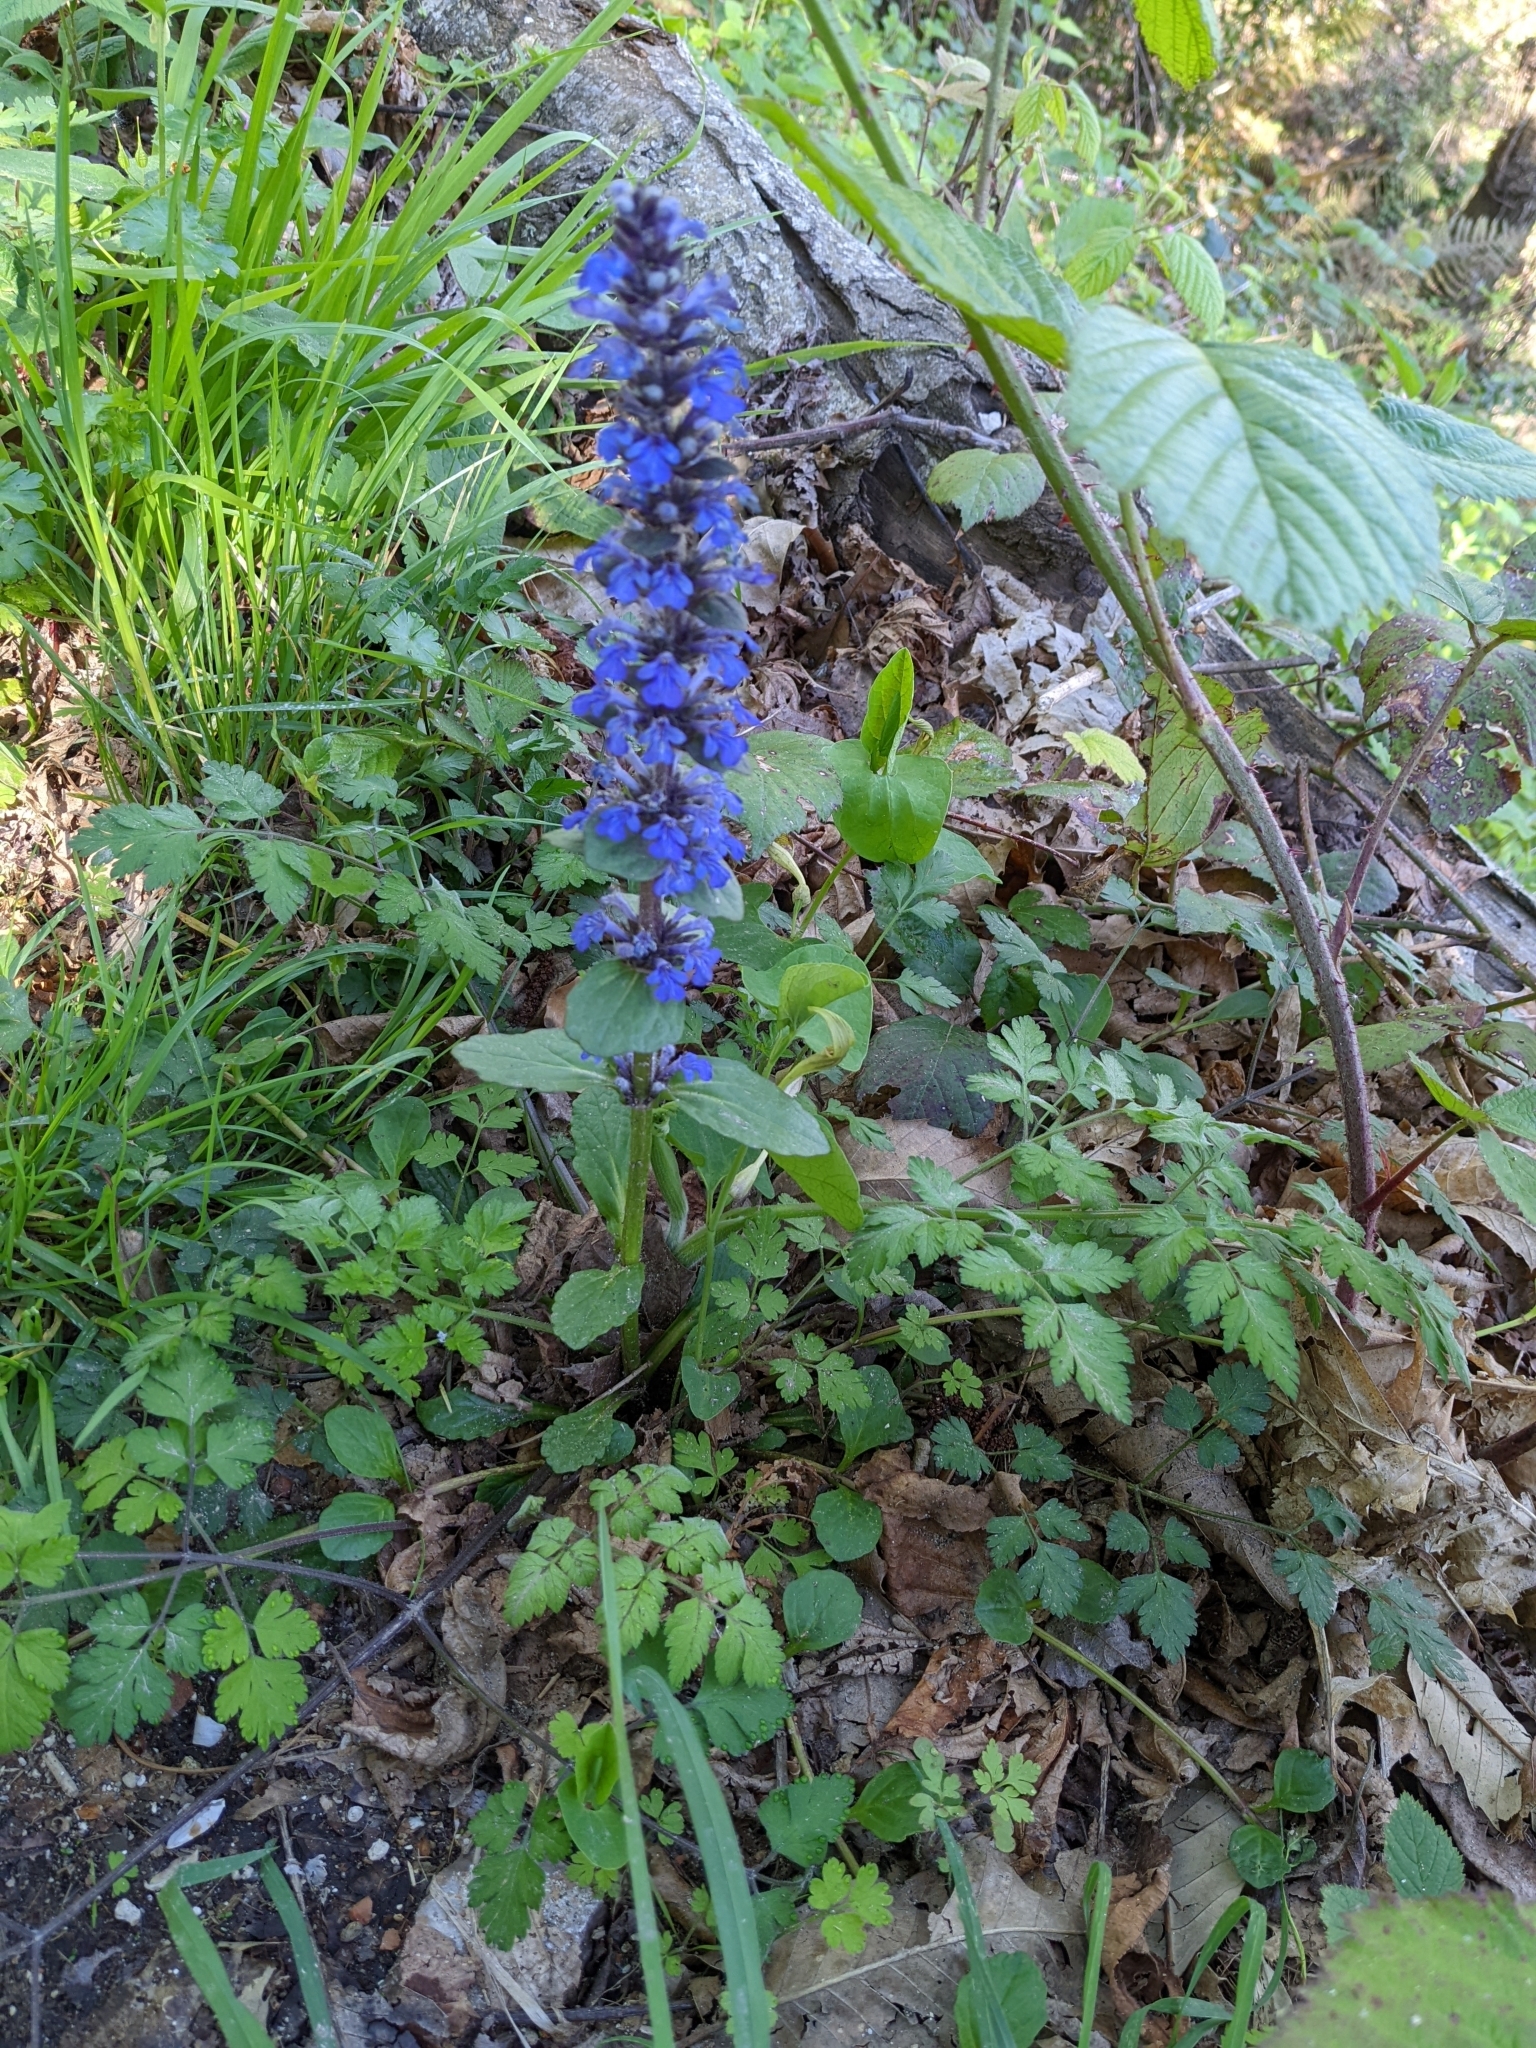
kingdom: Plantae
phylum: Tracheophyta
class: Magnoliopsida
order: Lamiales
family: Lamiaceae
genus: Ajuga
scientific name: Ajuga reptans
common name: Bugle
